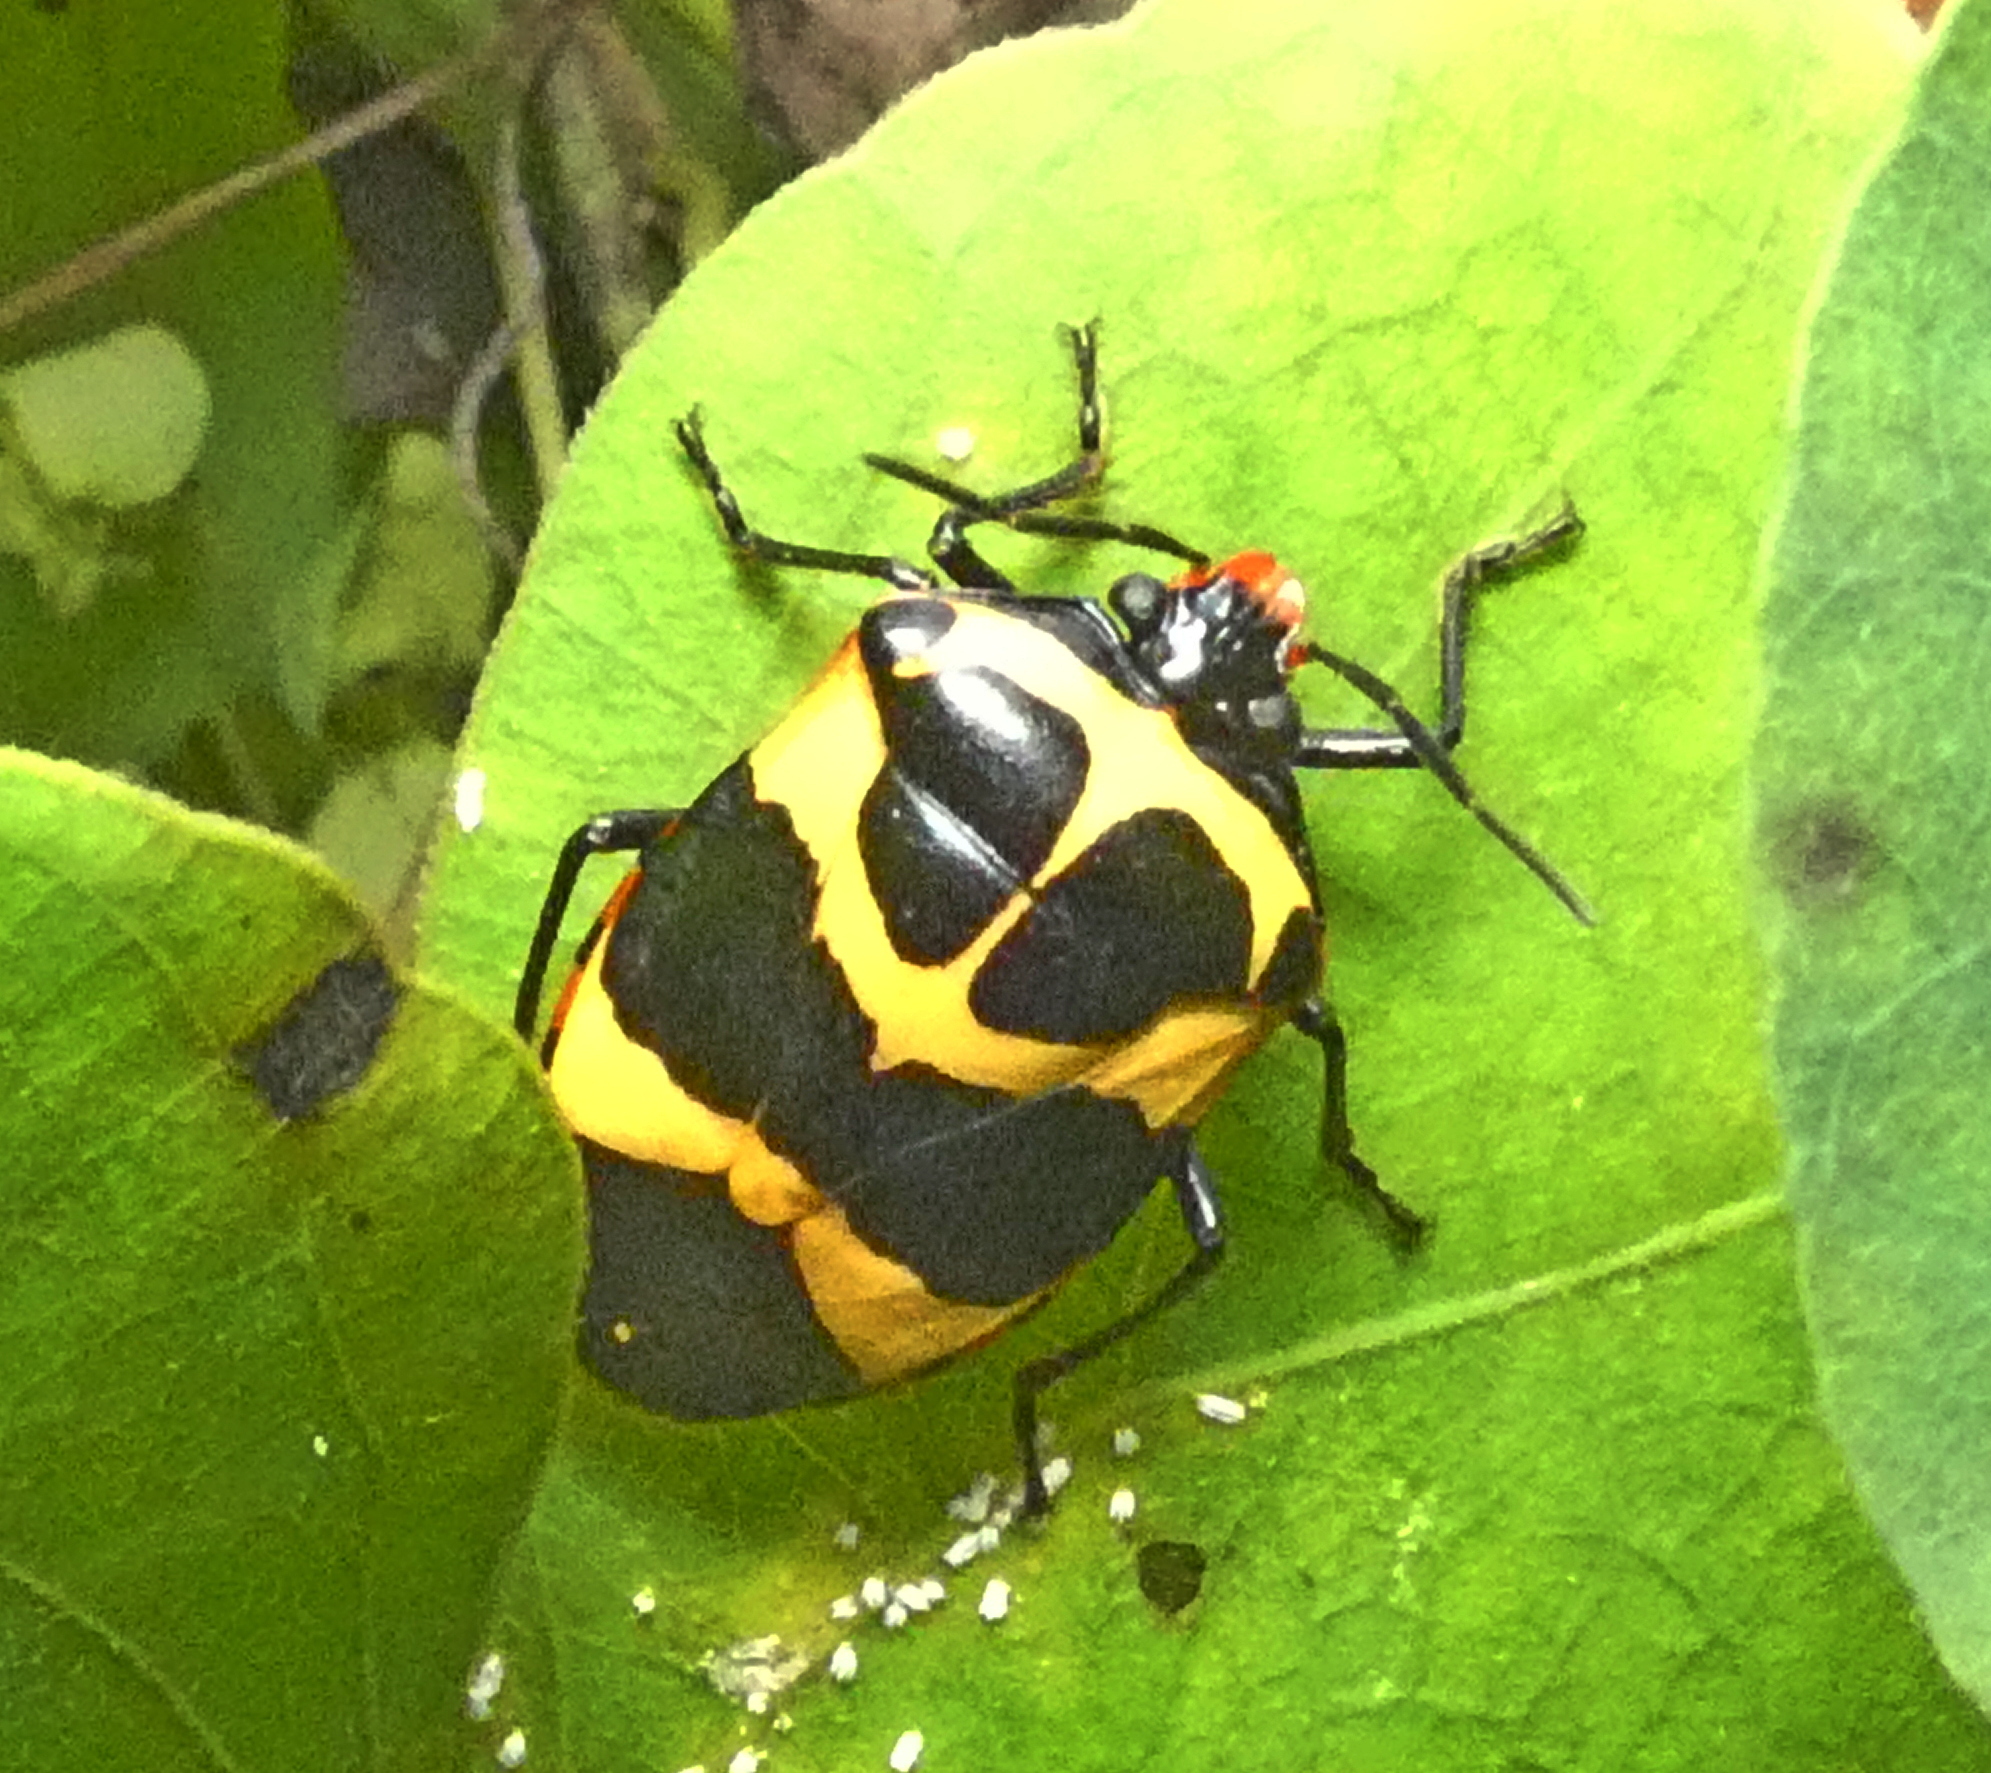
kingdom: Animalia
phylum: Arthropoda
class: Insecta
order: Hemiptera
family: Pentatomidae
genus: Arocera
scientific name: Arocera
